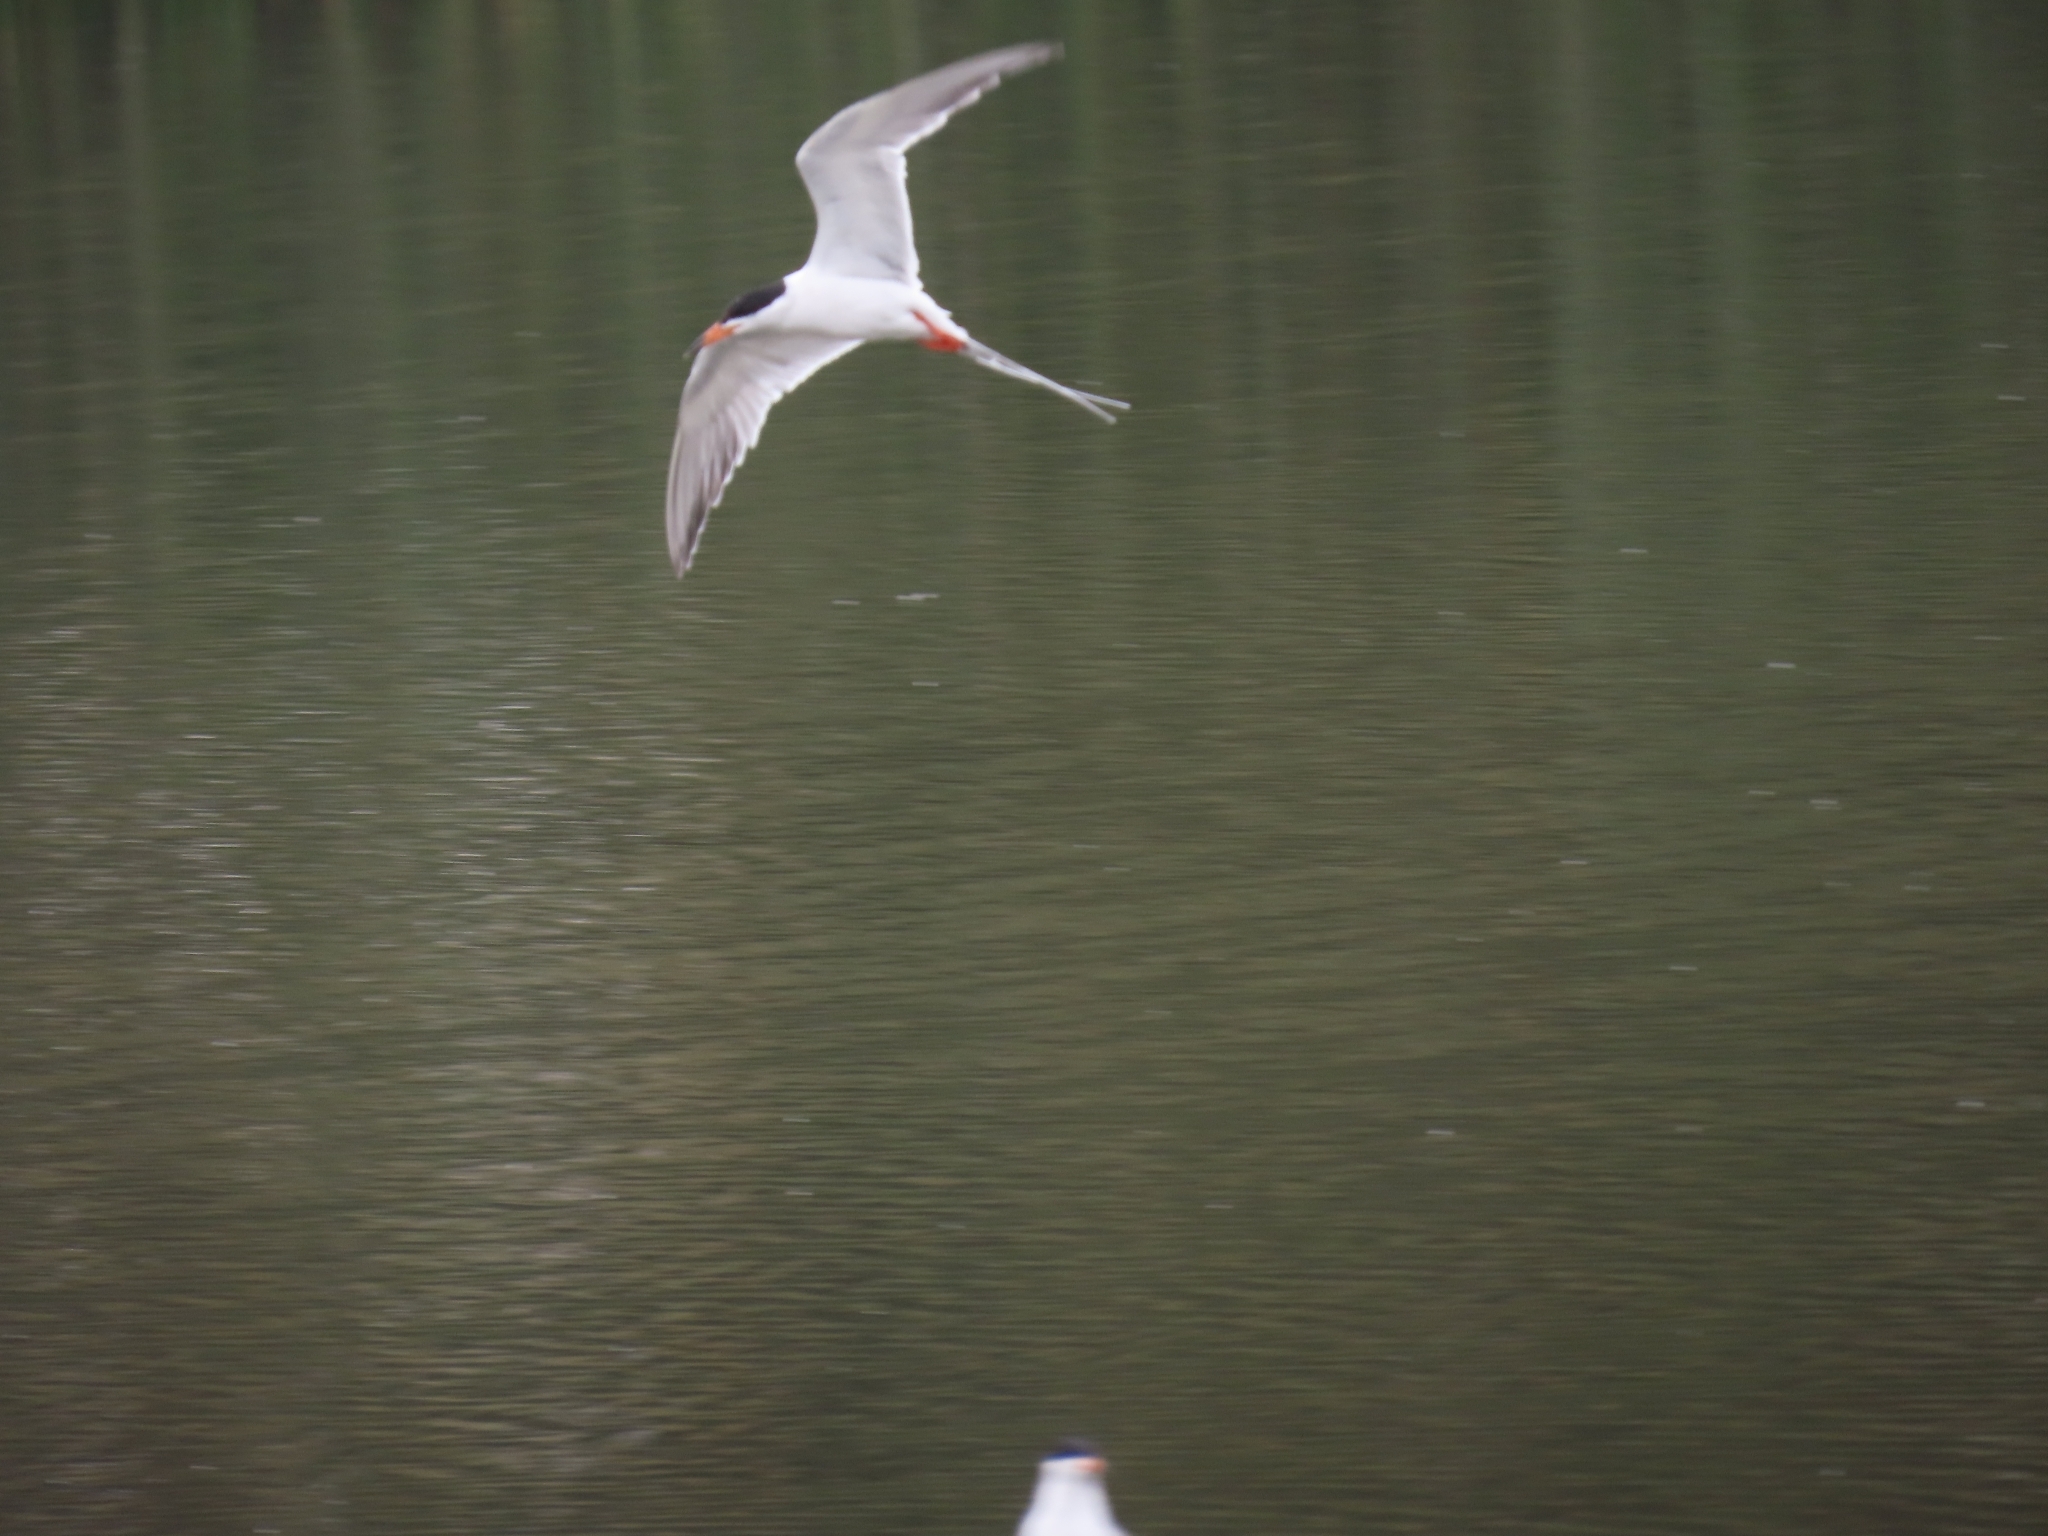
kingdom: Animalia
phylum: Chordata
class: Aves
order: Charadriiformes
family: Laridae
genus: Sterna
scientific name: Sterna forsteri
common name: Forster's tern
